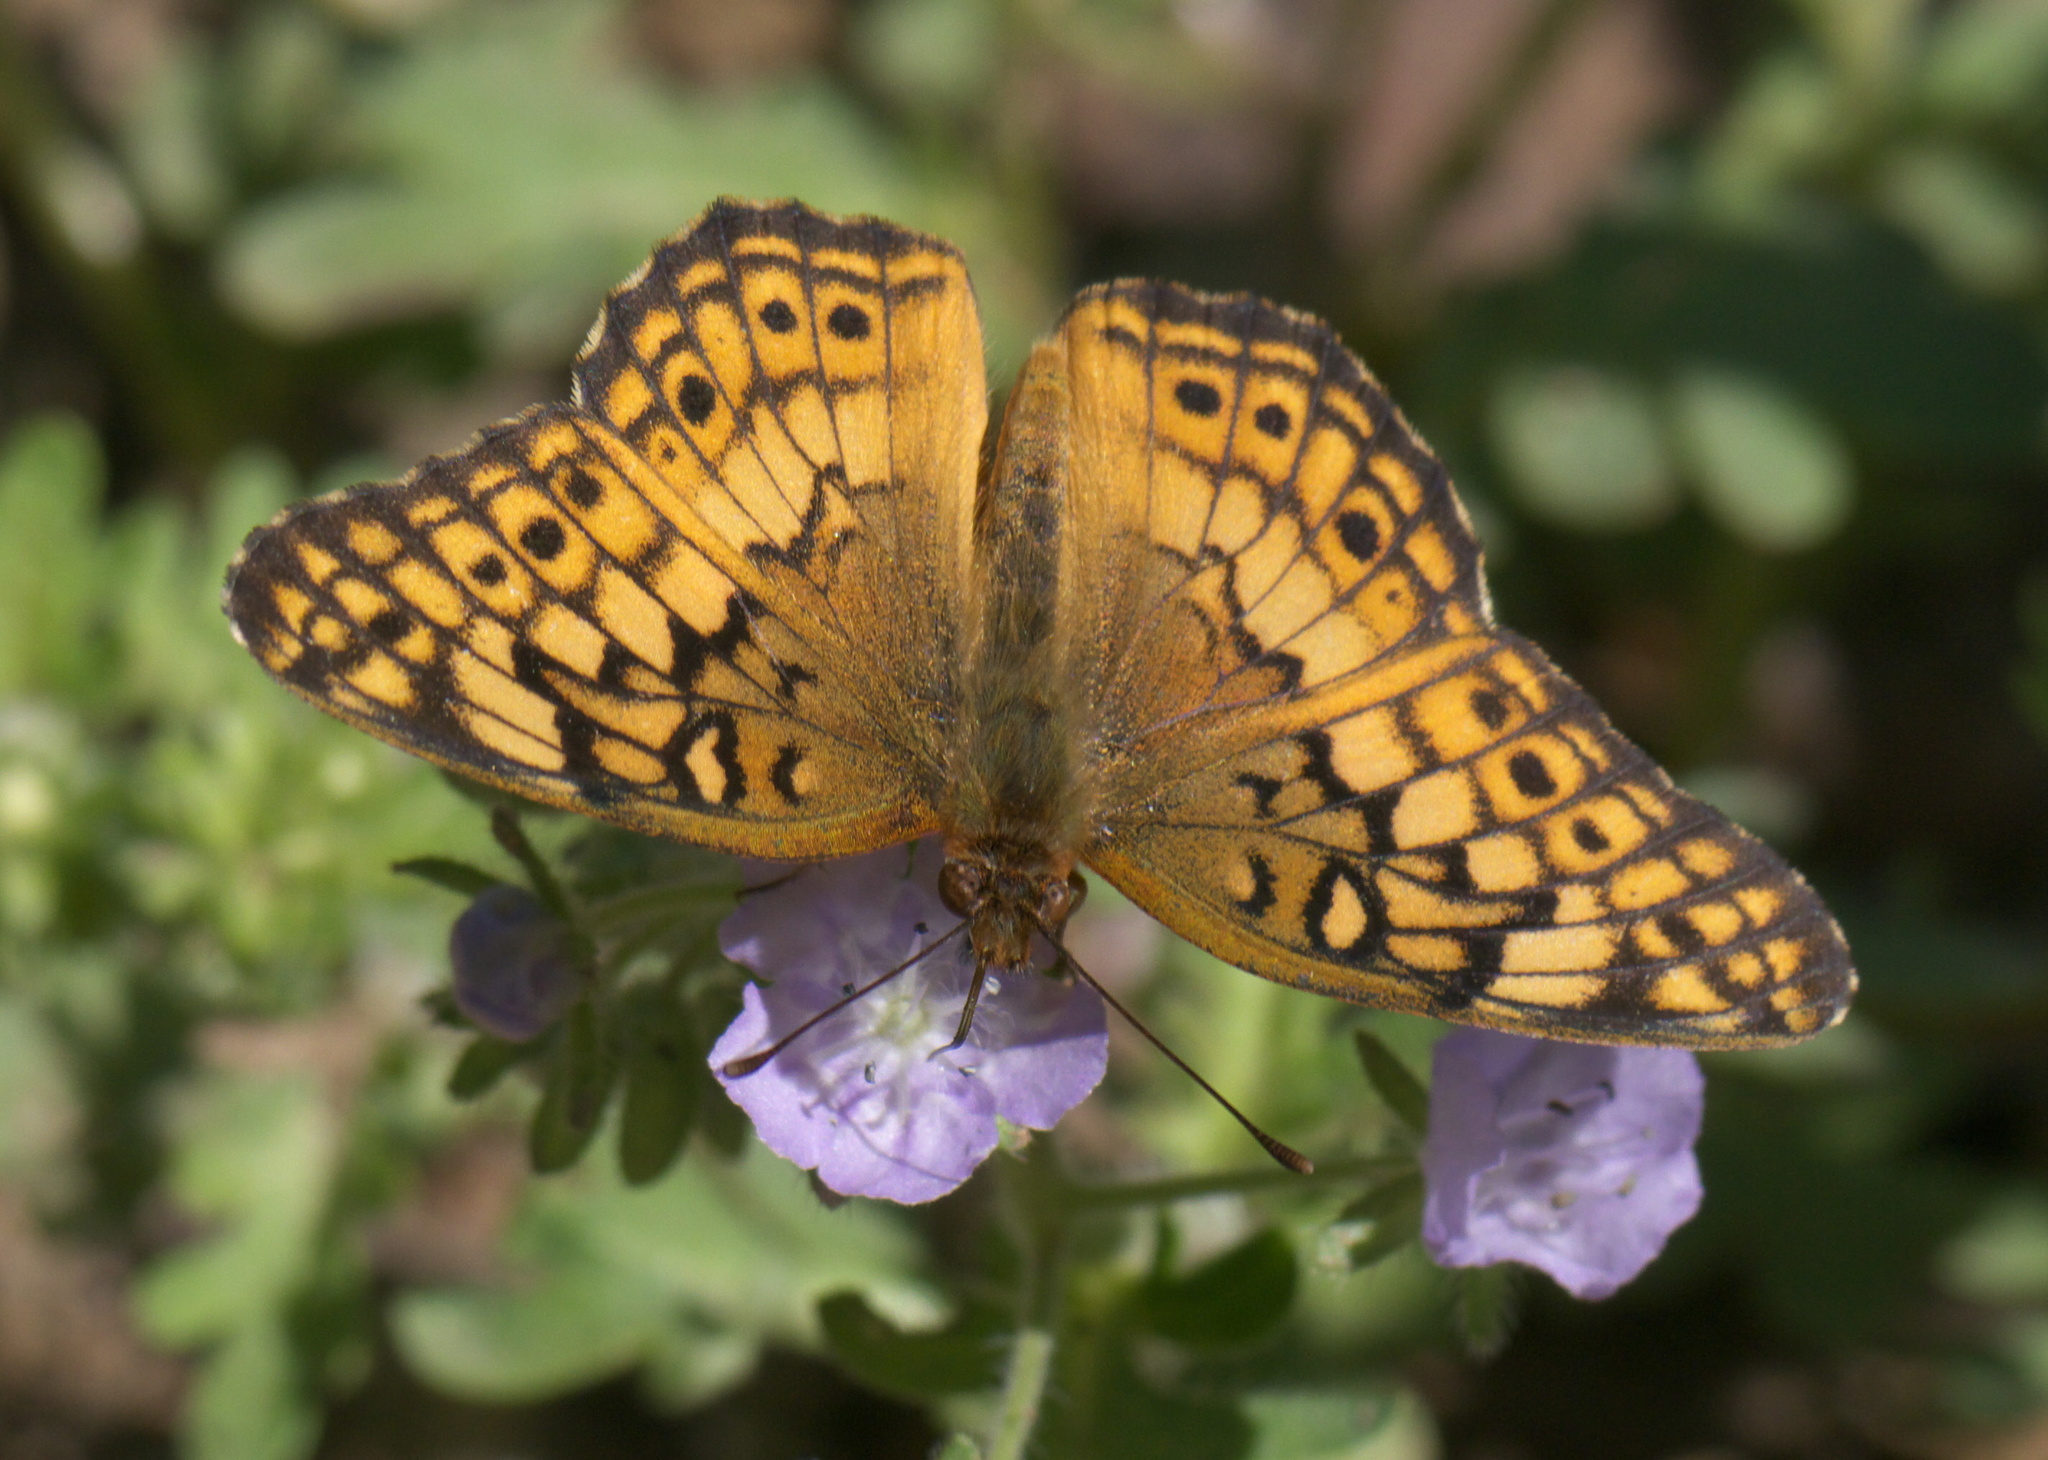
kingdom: Animalia
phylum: Arthropoda
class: Insecta
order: Lepidoptera
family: Nymphalidae
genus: Euptoieta
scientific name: Euptoieta claudia
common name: Variegated fritillary
